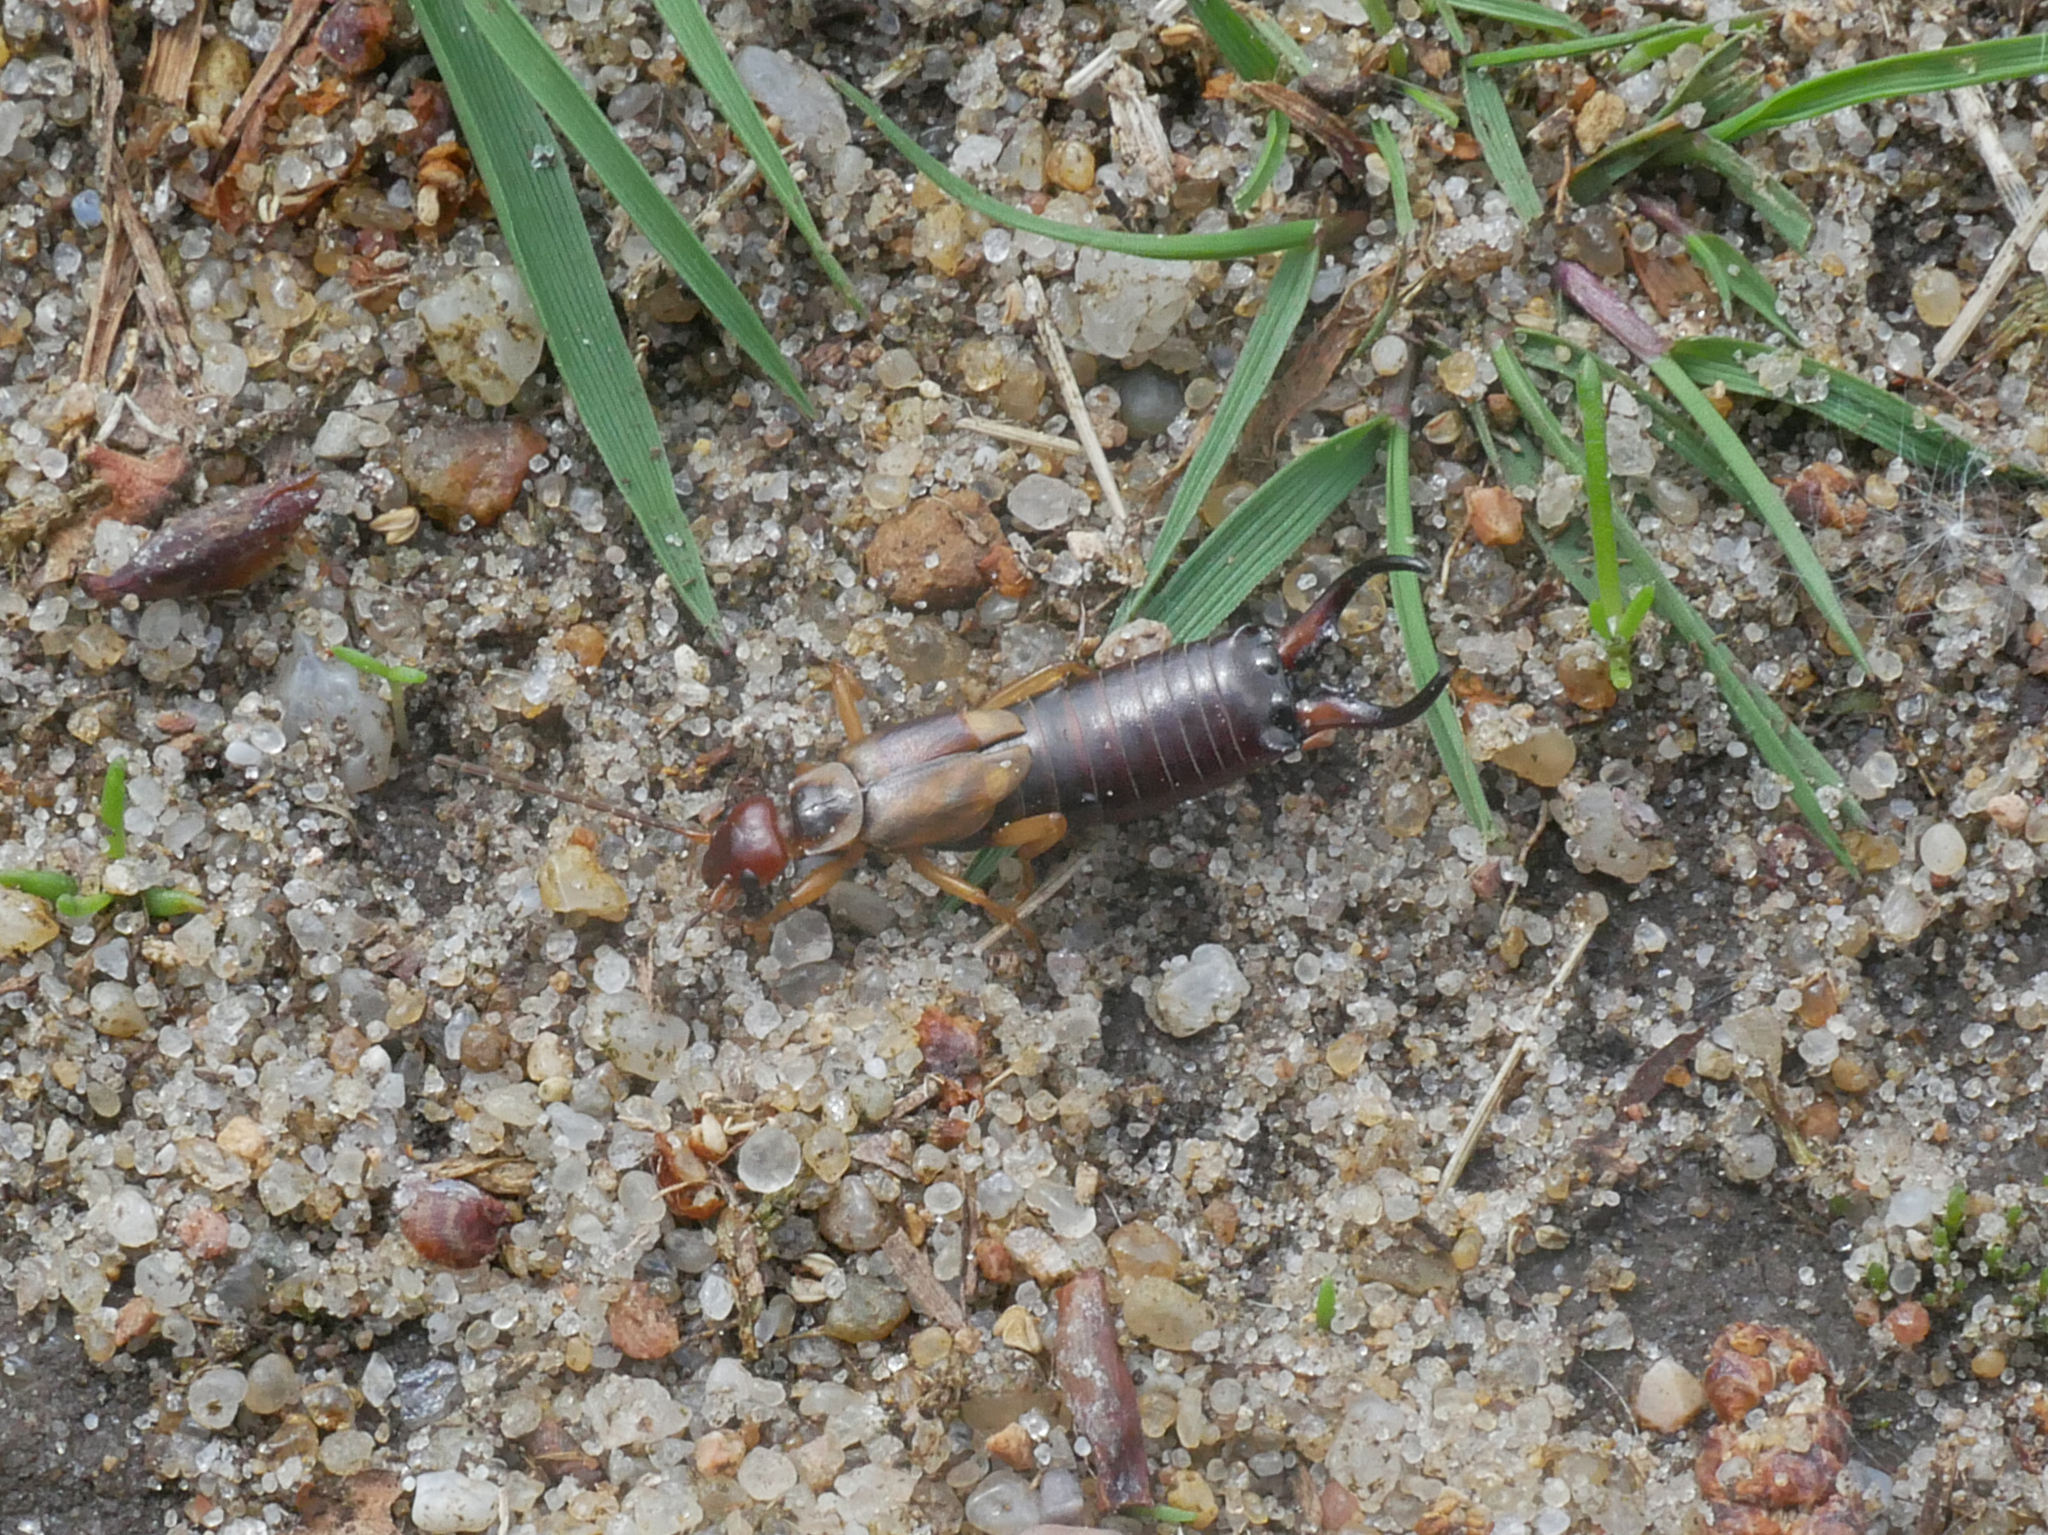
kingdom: Animalia
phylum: Arthropoda
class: Insecta
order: Dermaptera
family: Forficulidae
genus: Forficula
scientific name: Forficula
